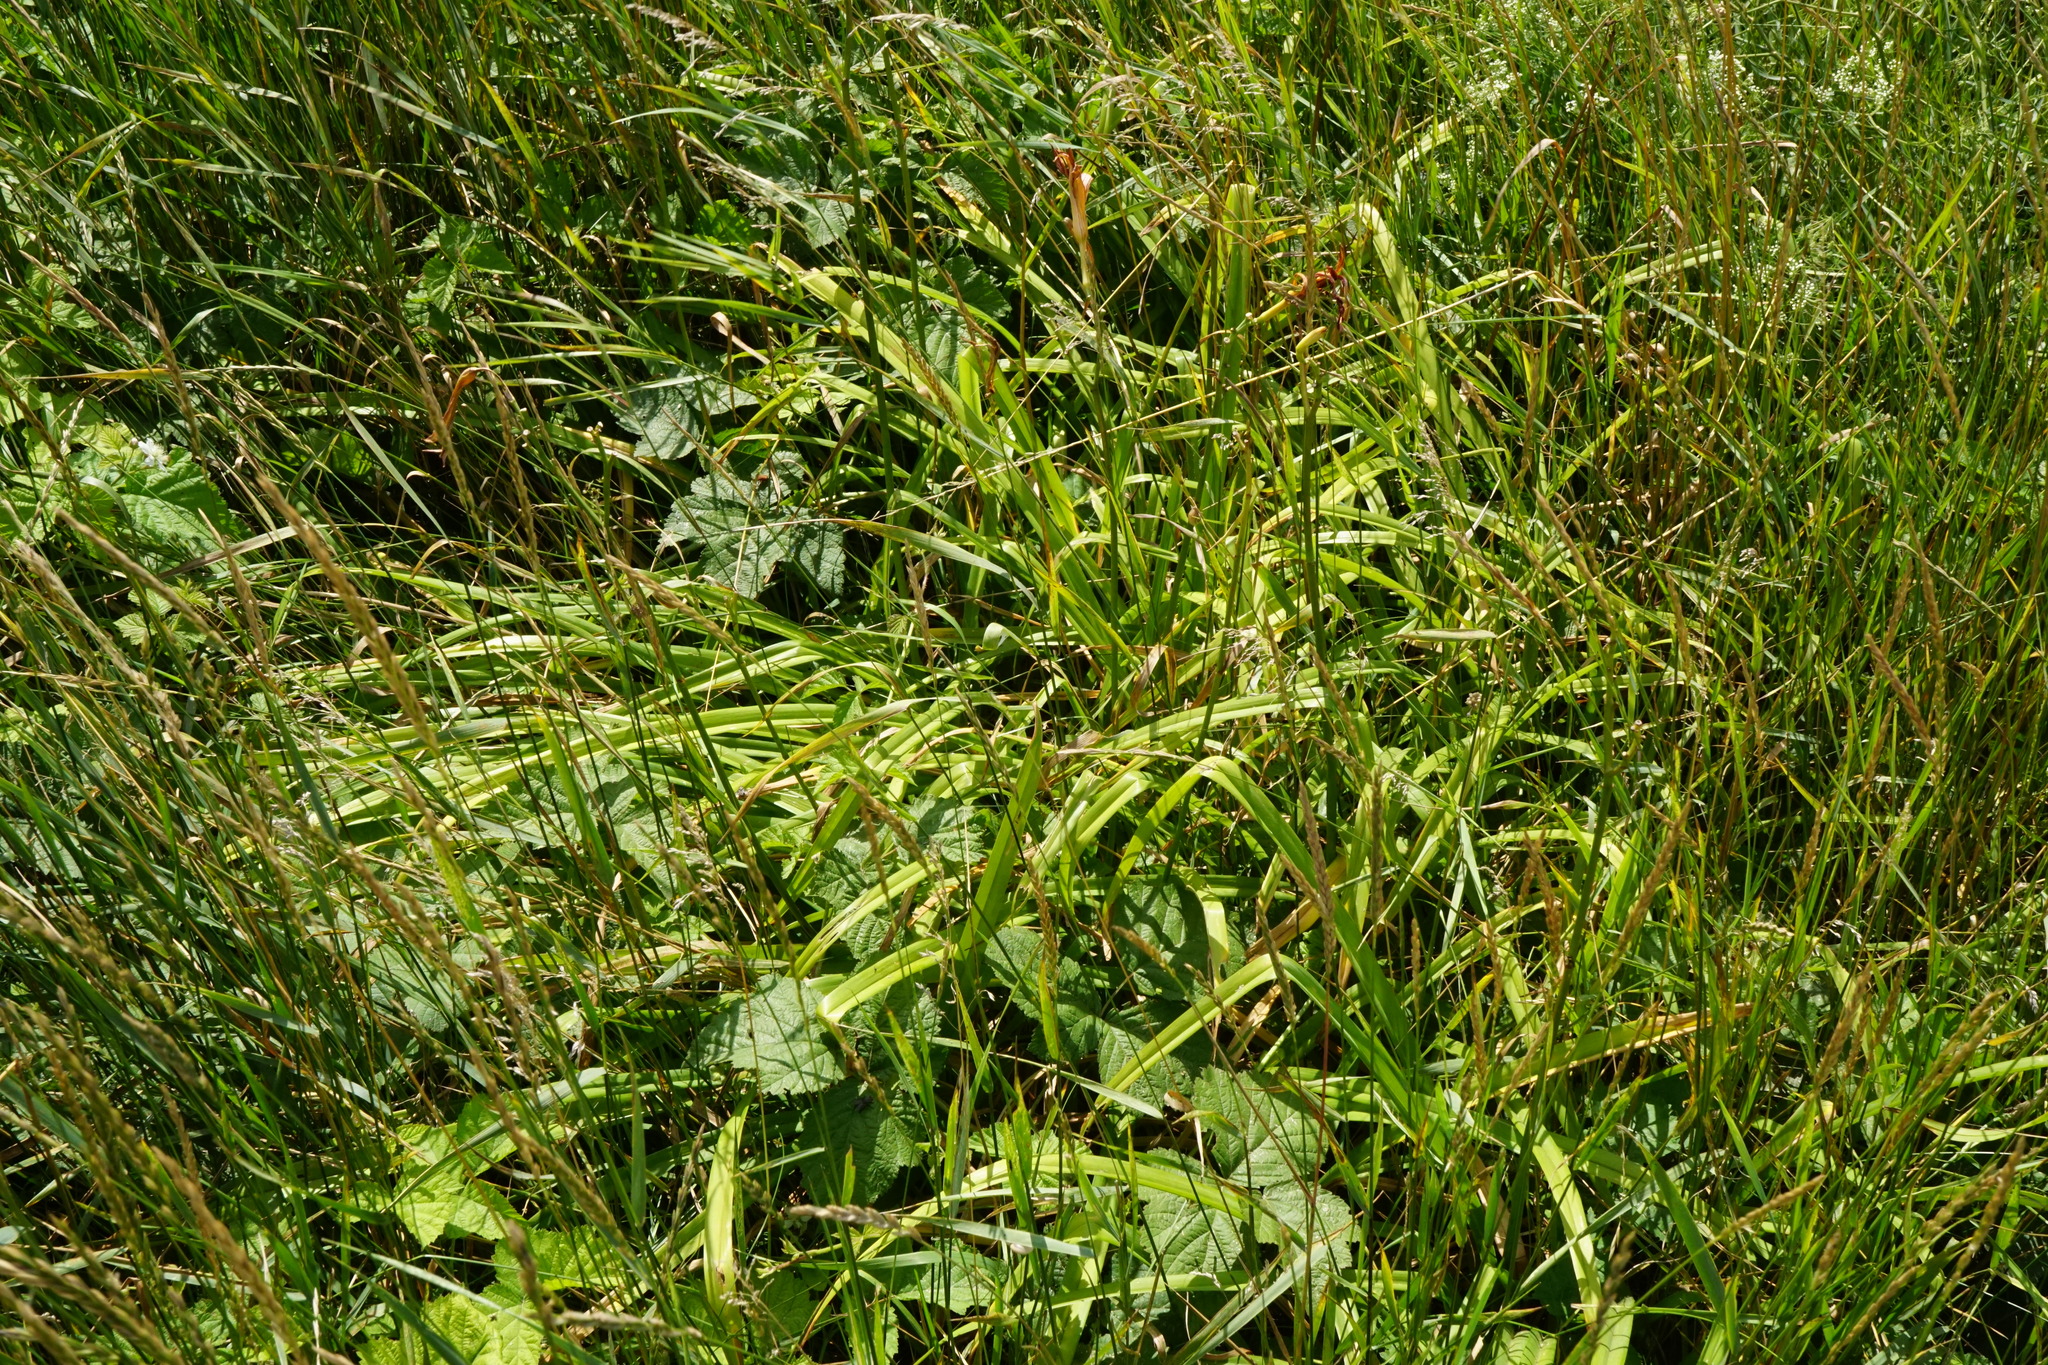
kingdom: Plantae
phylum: Tracheophyta
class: Liliopsida
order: Asparagales
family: Asphodelaceae
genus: Hemerocallis
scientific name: Hemerocallis fulva
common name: Orange day-lily
